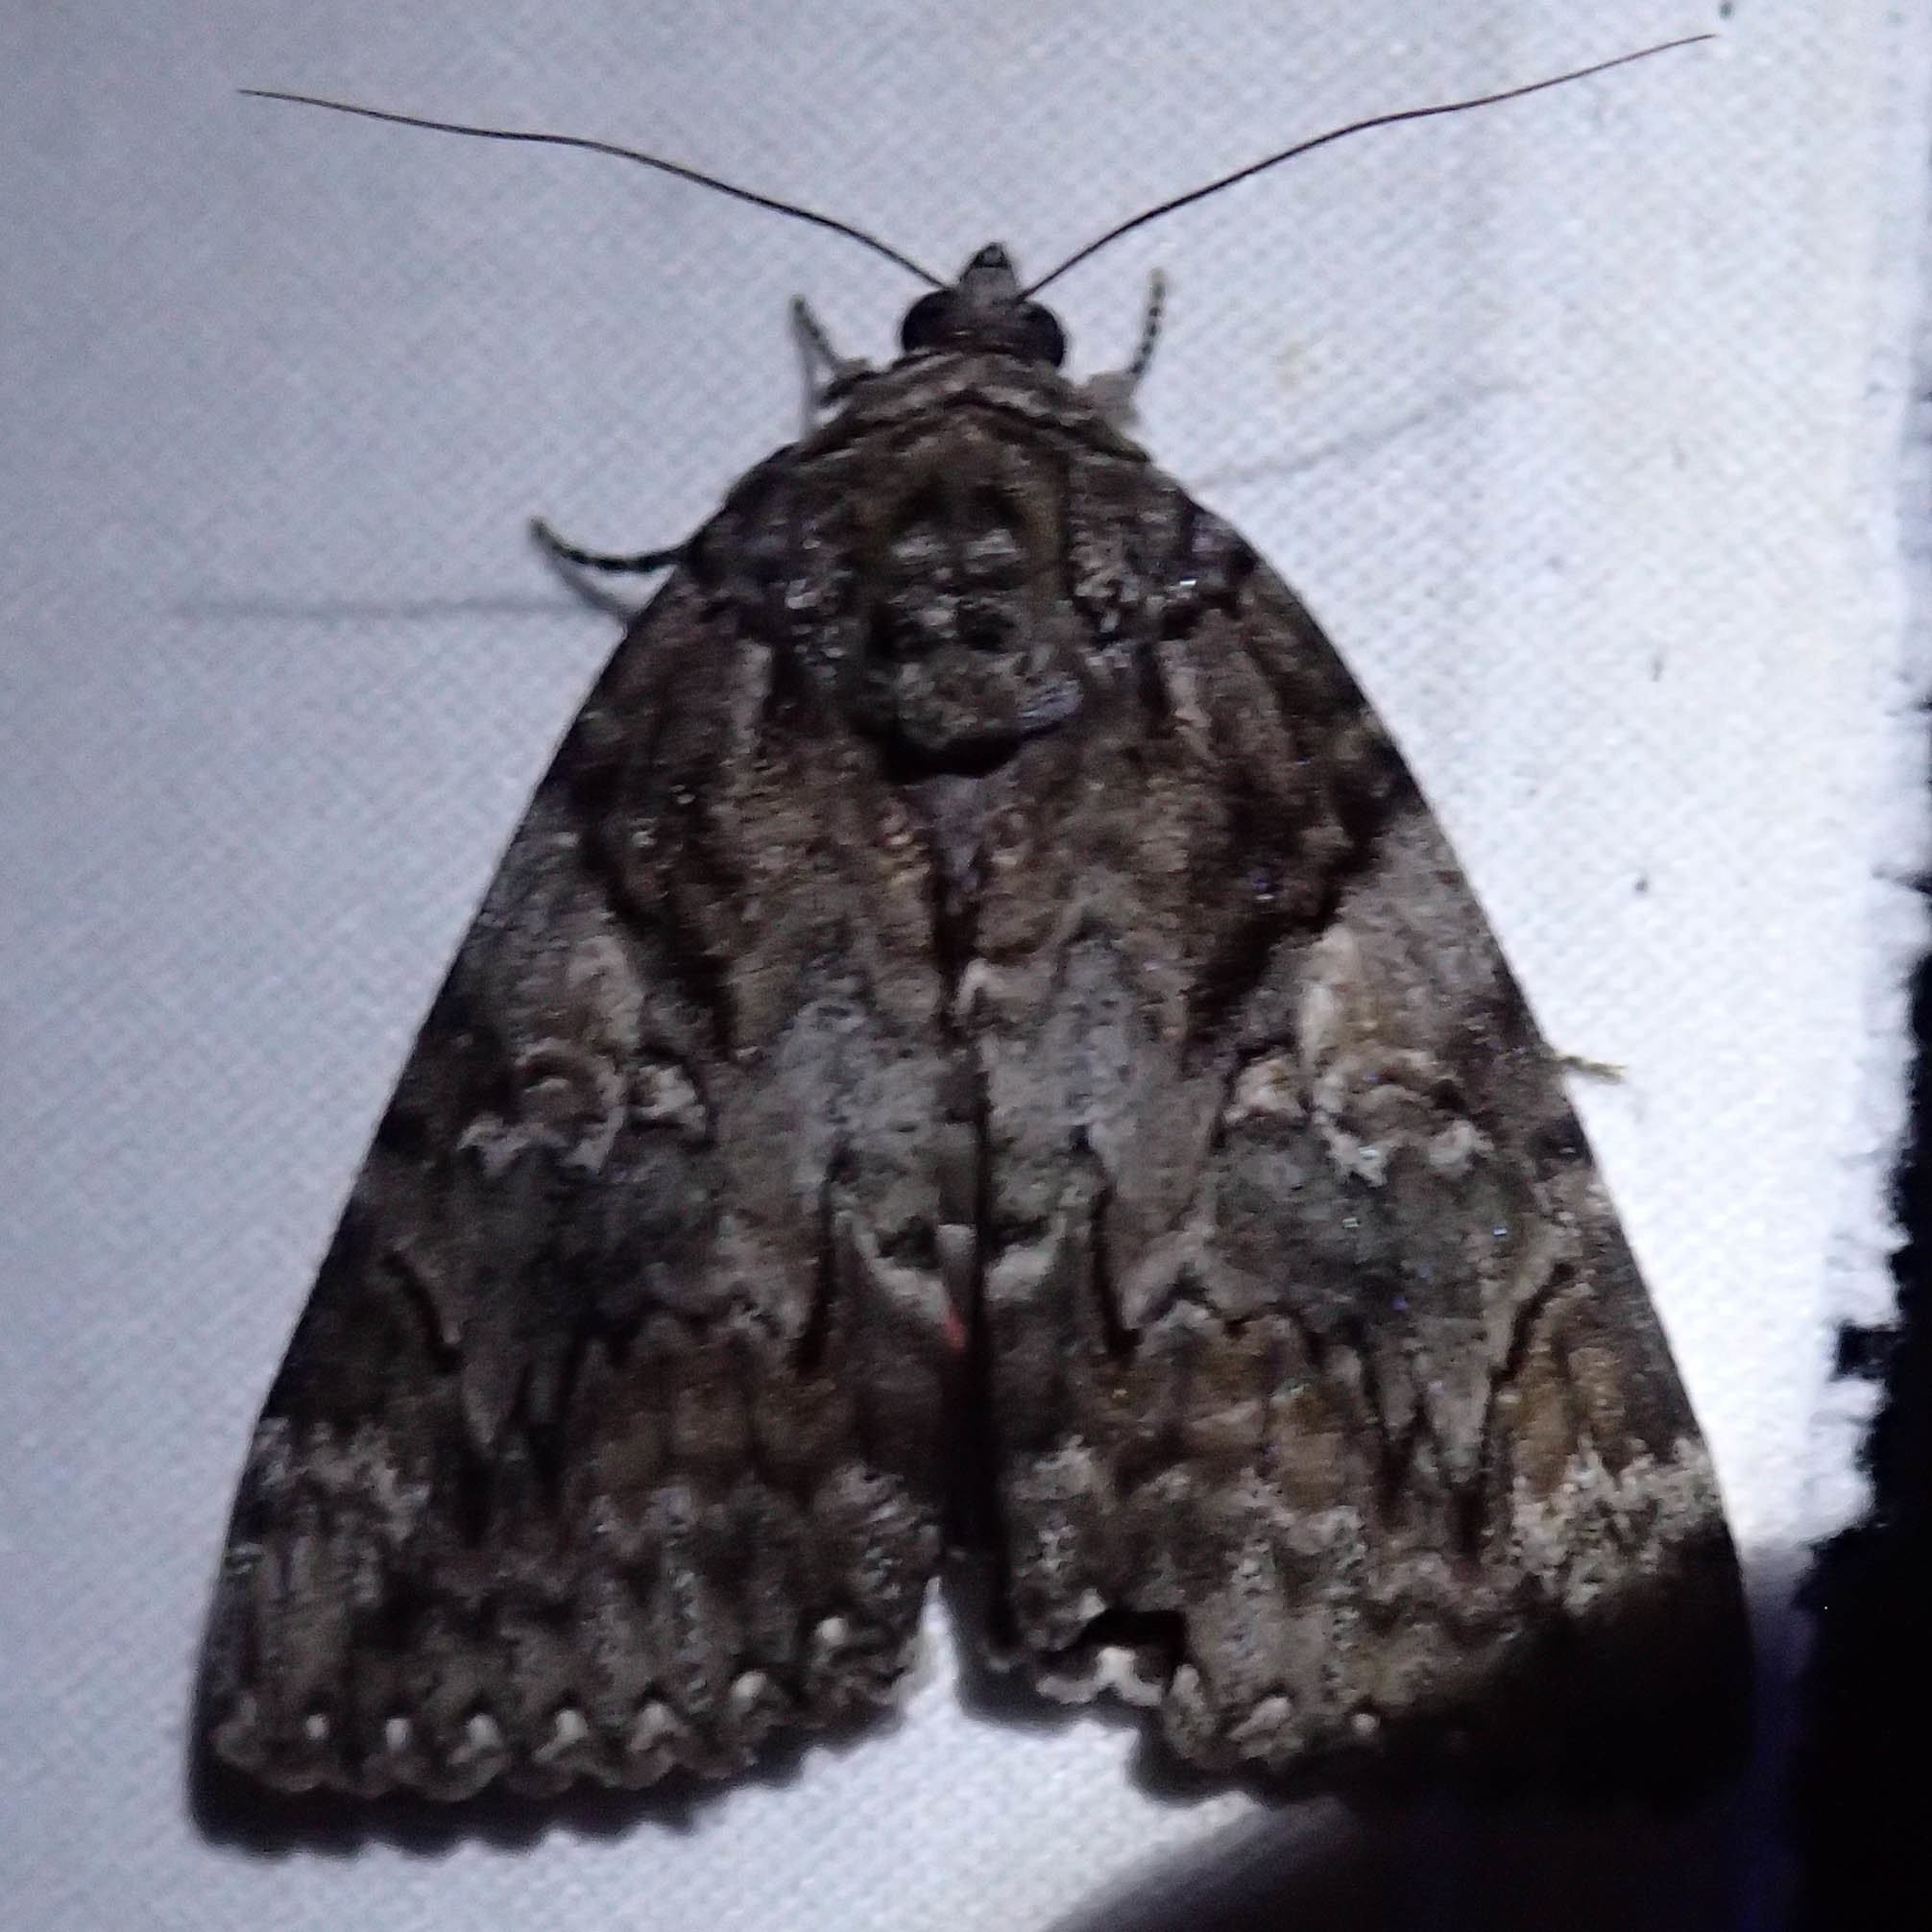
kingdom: Animalia
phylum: Arthropoda
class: Insecta
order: Lepidoptera
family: Erebidae
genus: Catocala
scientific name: Catocala aholibah
